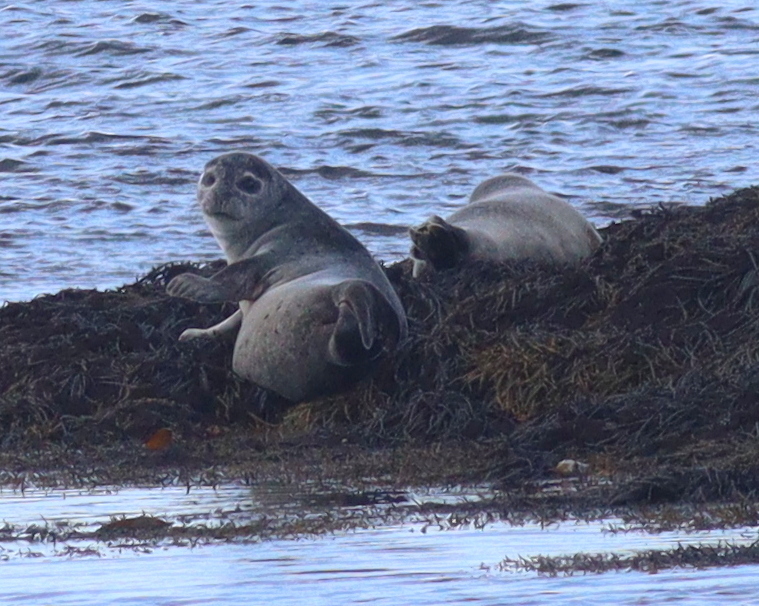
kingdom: Animalia
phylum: Chordata
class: Mammalia
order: Carnivora
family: Phocidae
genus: Phoca
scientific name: Phoca vitulina
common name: Harbor seal
